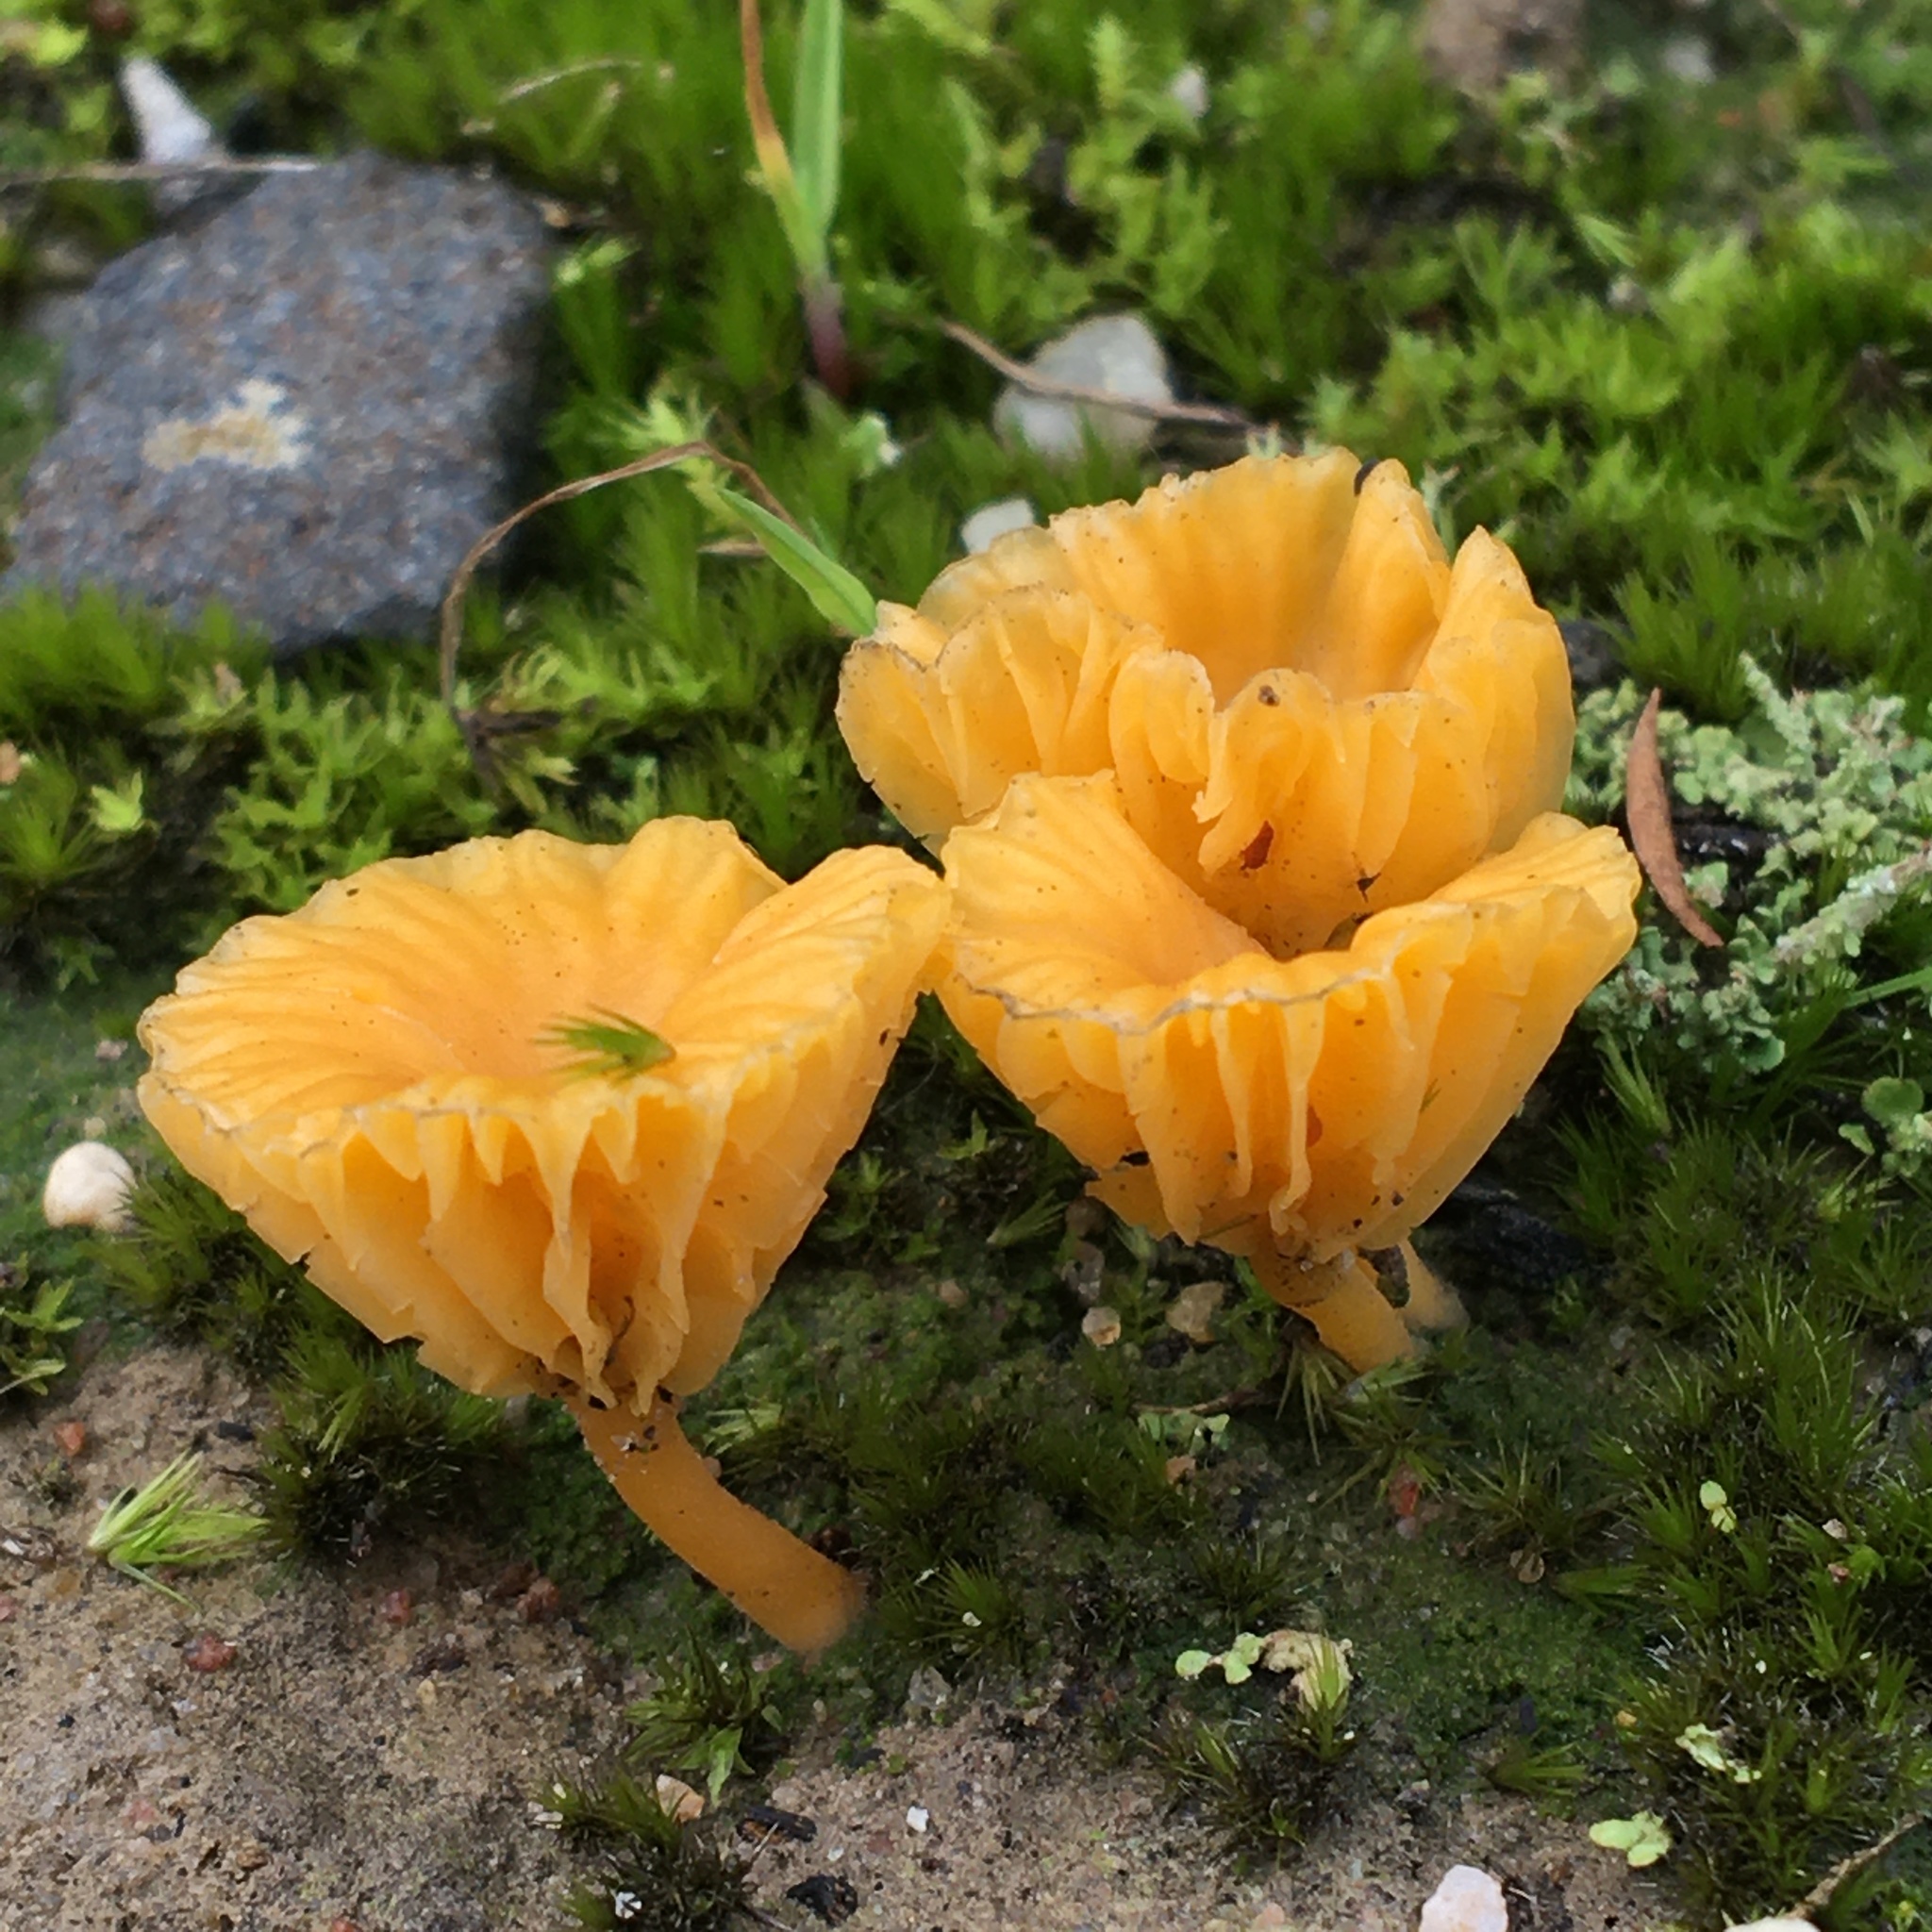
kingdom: Fungi
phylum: Basidiomycota
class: Agaricomycetes
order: Agaricales
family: Hygrophoraceae
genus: Lichenomphalia
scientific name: Lichenomphalia chromacea
